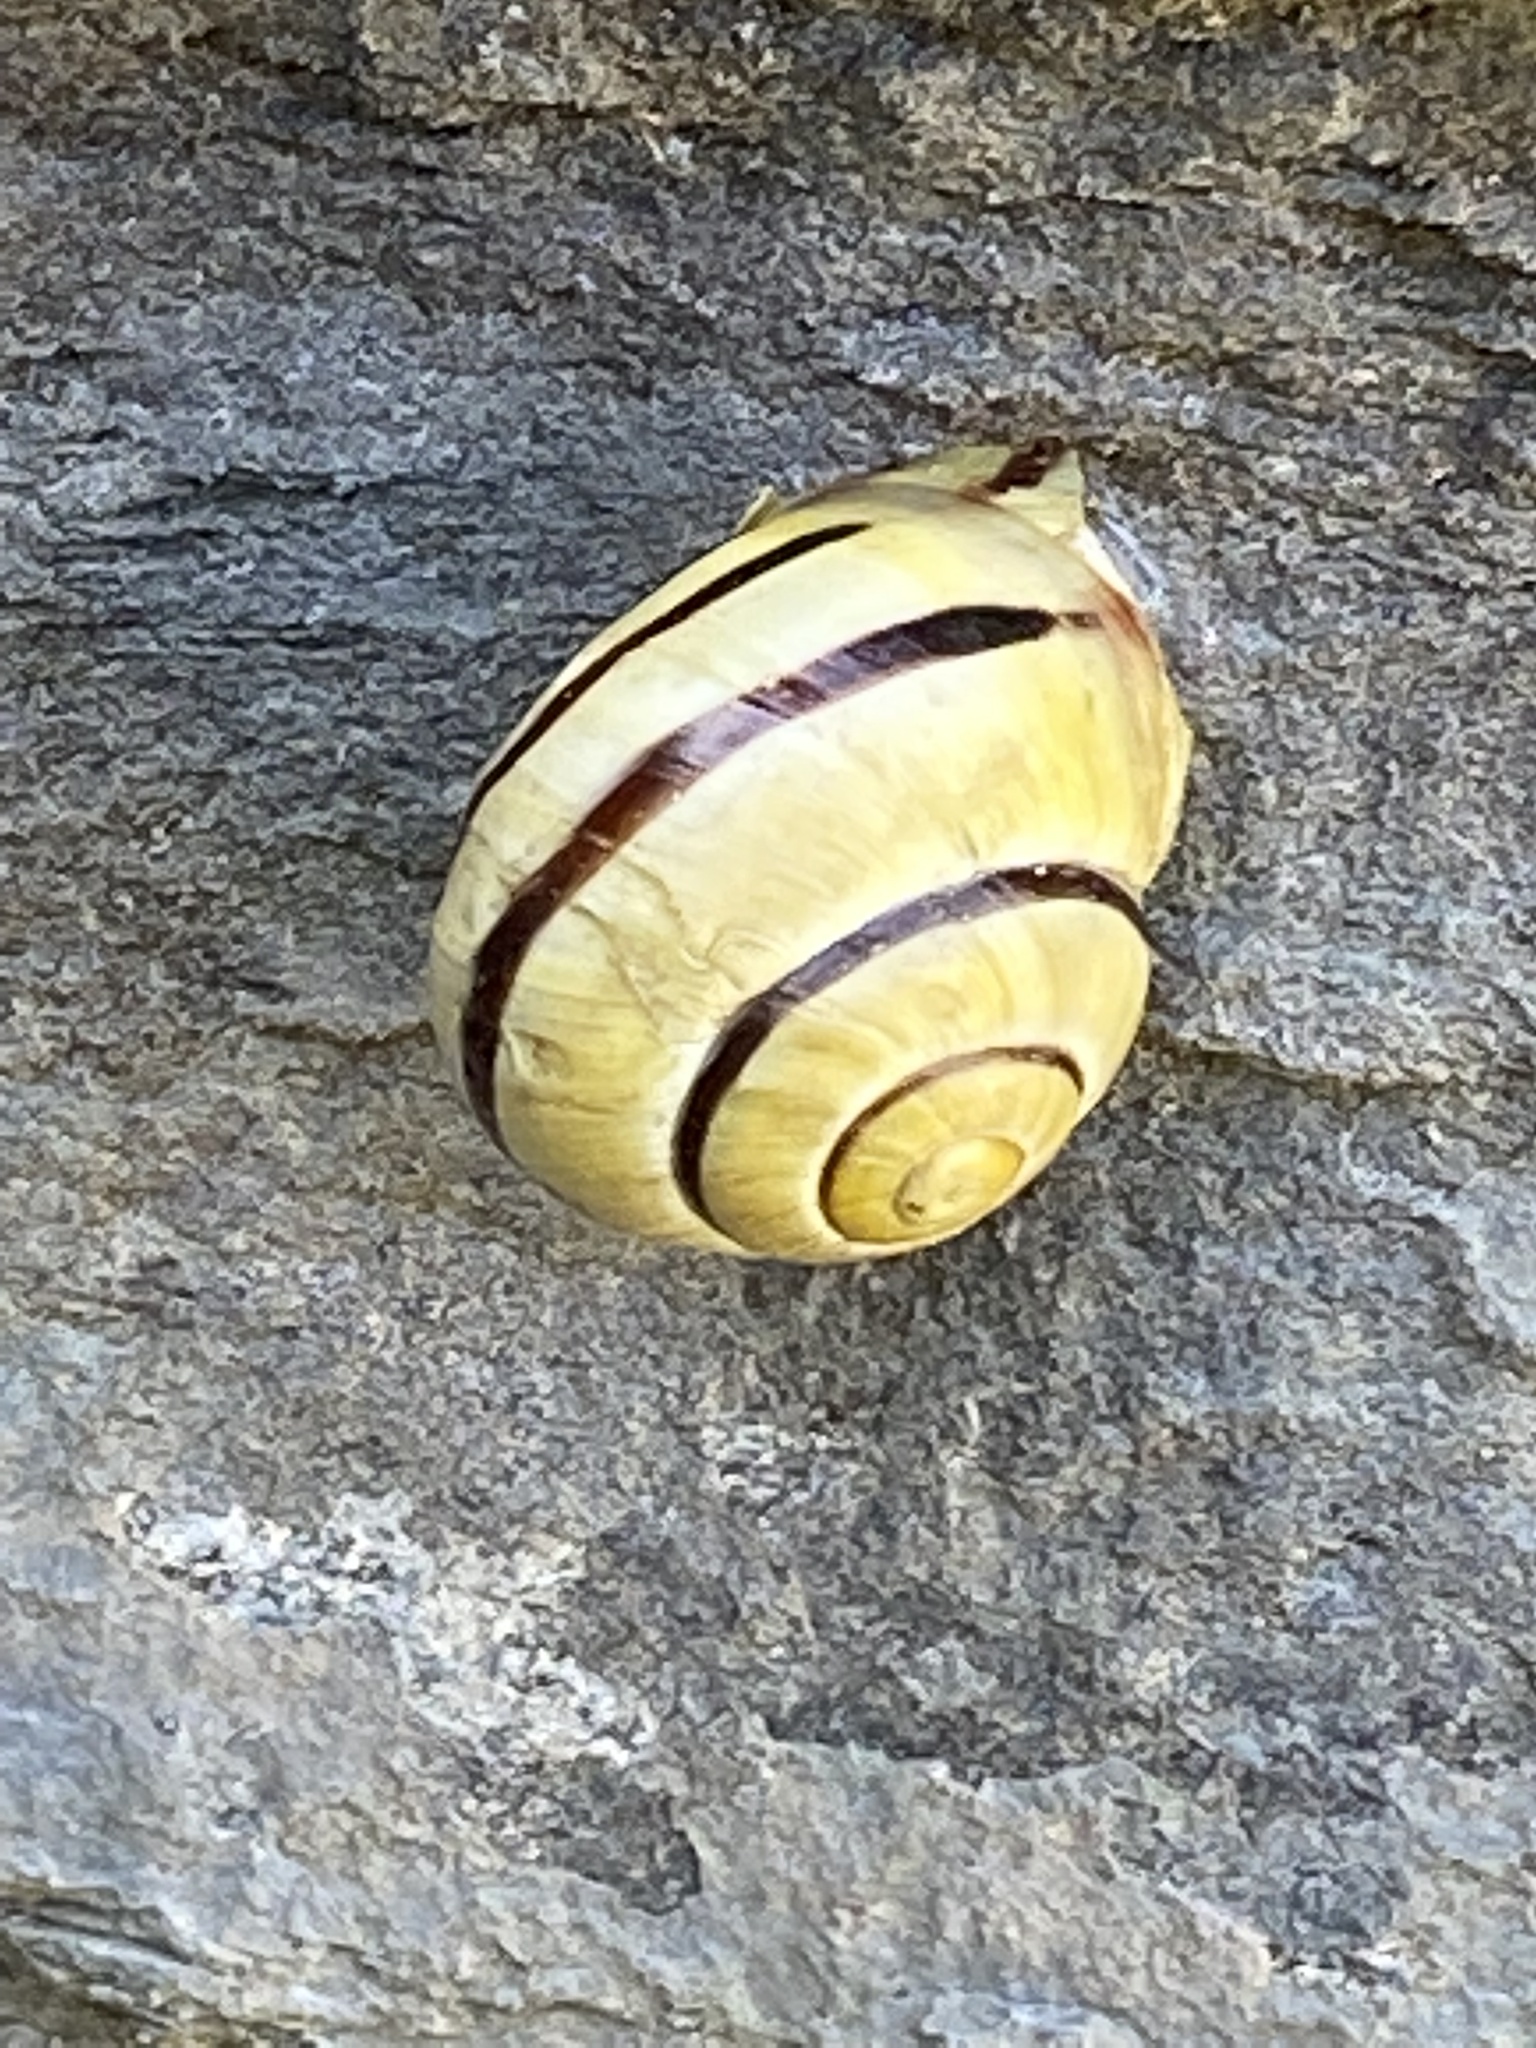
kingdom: Animalia
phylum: Mollusca
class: Gastropoda
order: Stylommatophora
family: Helicidae
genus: Cepaea
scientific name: Cepaea nemoralis
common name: Grovesnail
